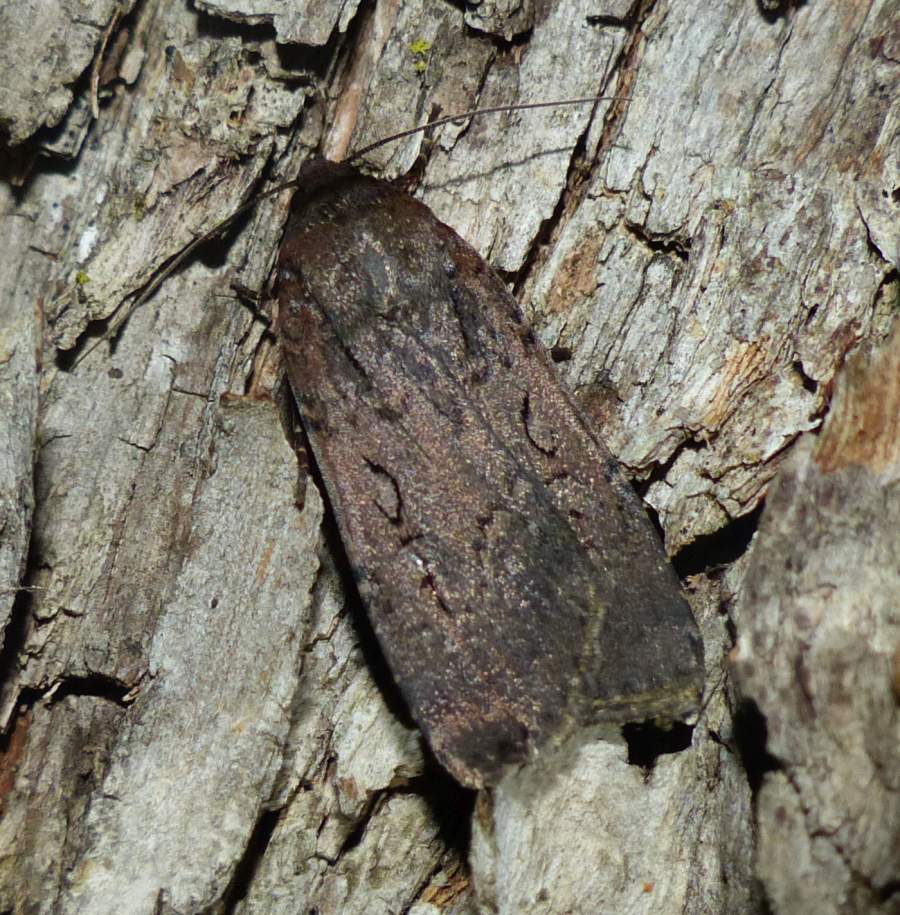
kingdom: Animalia
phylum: Arthropoda
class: Insecta
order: Lepidoptera
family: Noctuidae
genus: Spaelotis
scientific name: Spaelotis clandestina
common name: Clandestine dart
